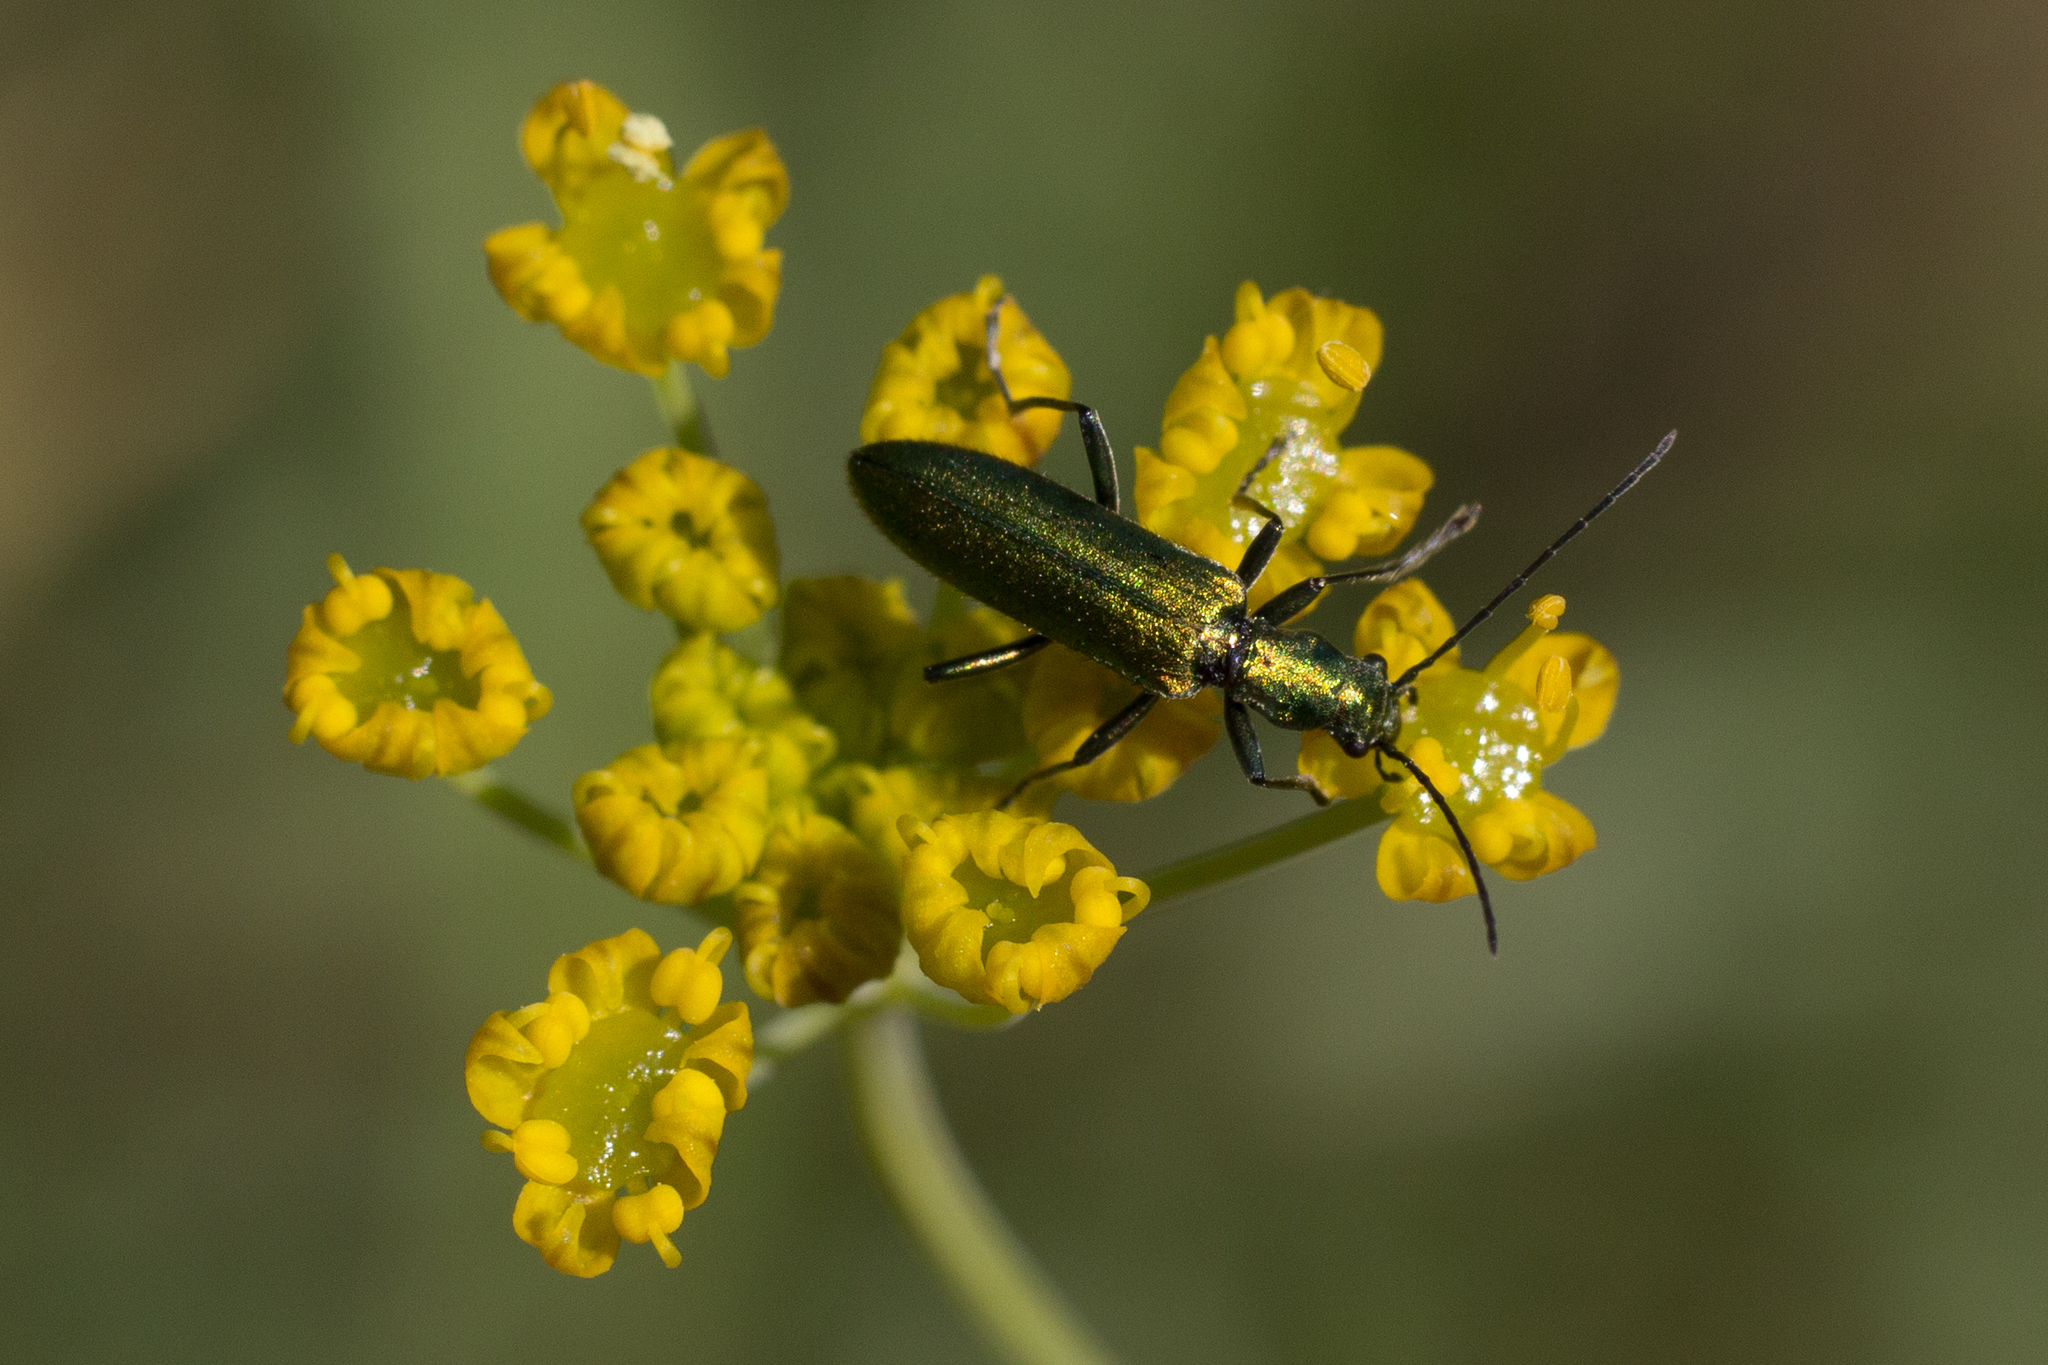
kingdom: Animalia
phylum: Arthropoda
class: Insecta
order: Coleoptera
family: Oedemeridae
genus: Chrysanthia
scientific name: Chrysanthia superba
